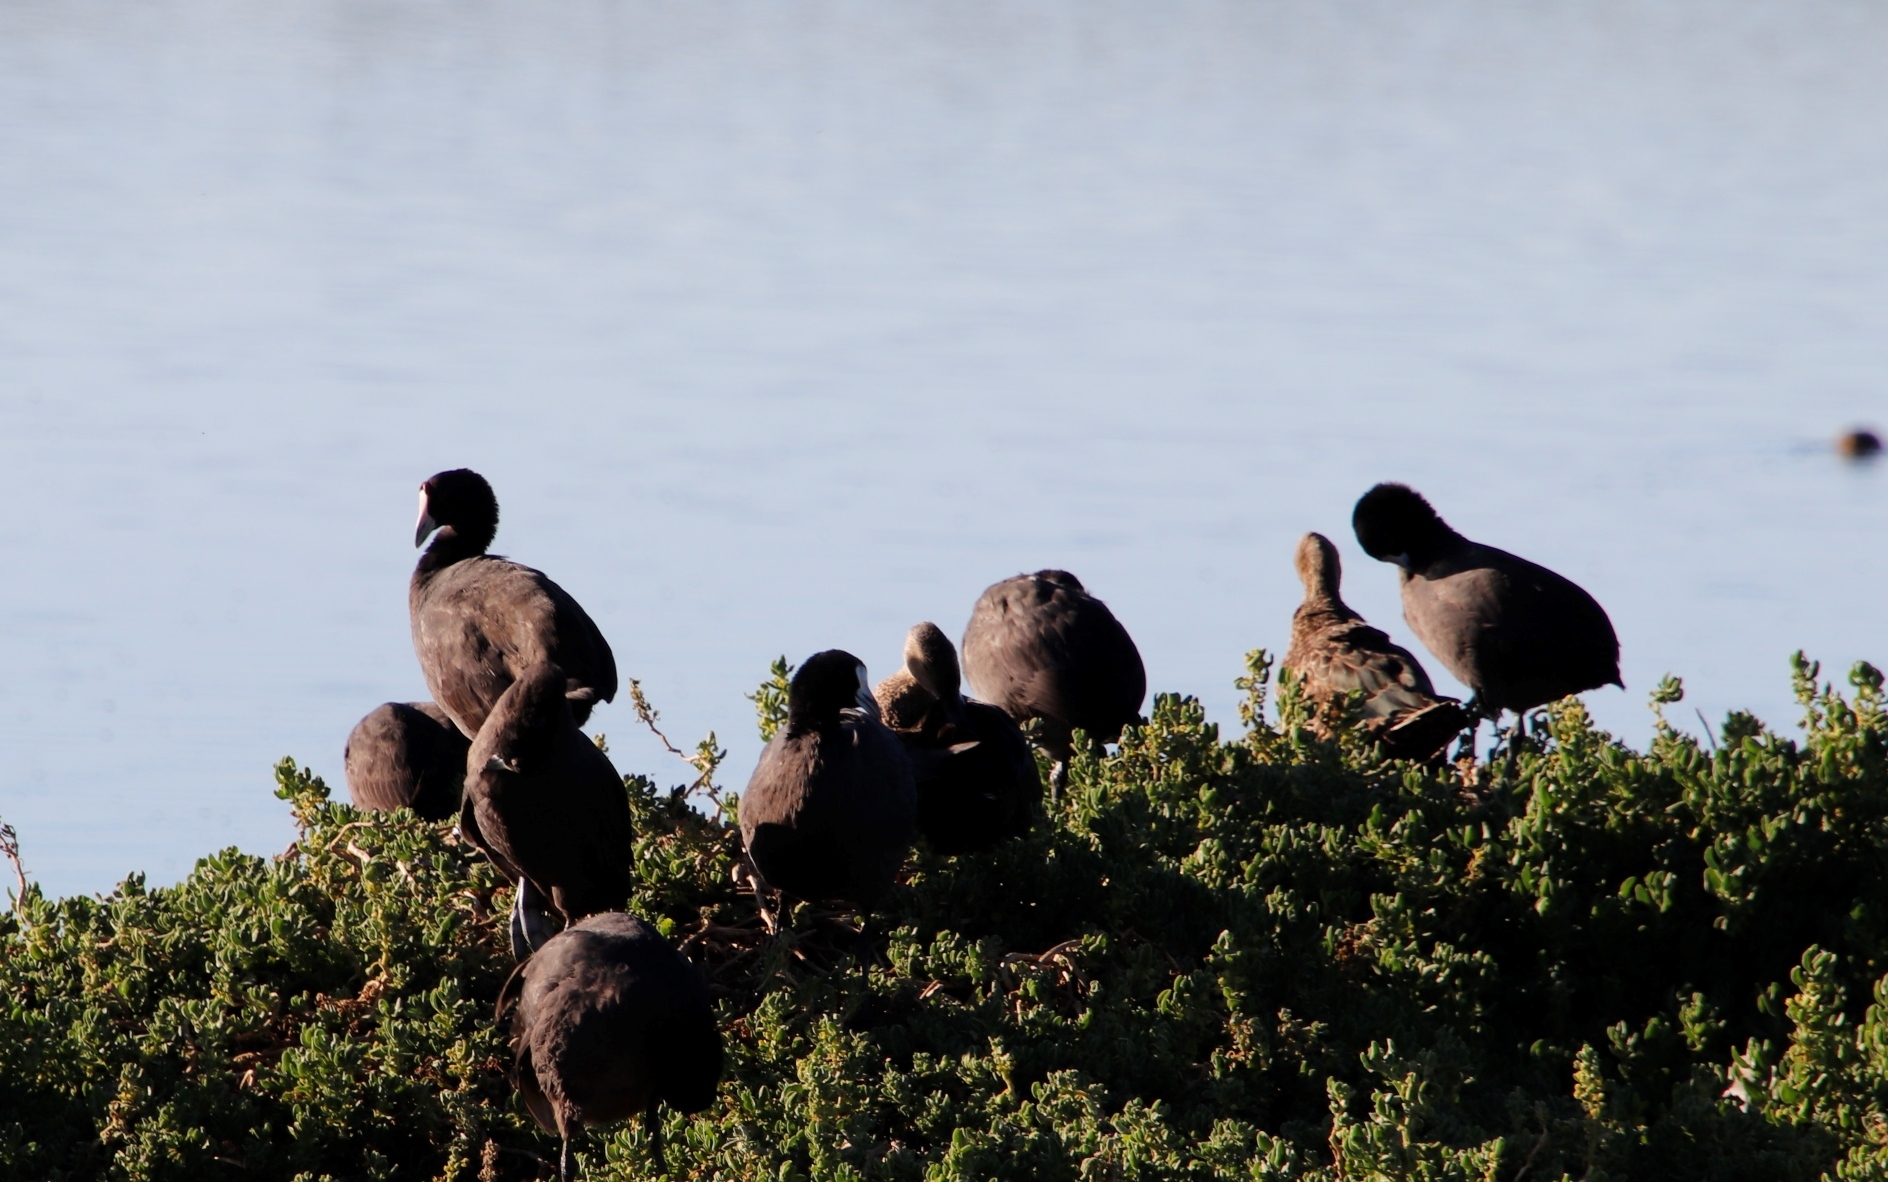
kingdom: Animalia
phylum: Chordata
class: Aves
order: Gruiformes
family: Rallidae
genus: Fulica
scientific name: Fulica cristata
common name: Red-knobbed coot
